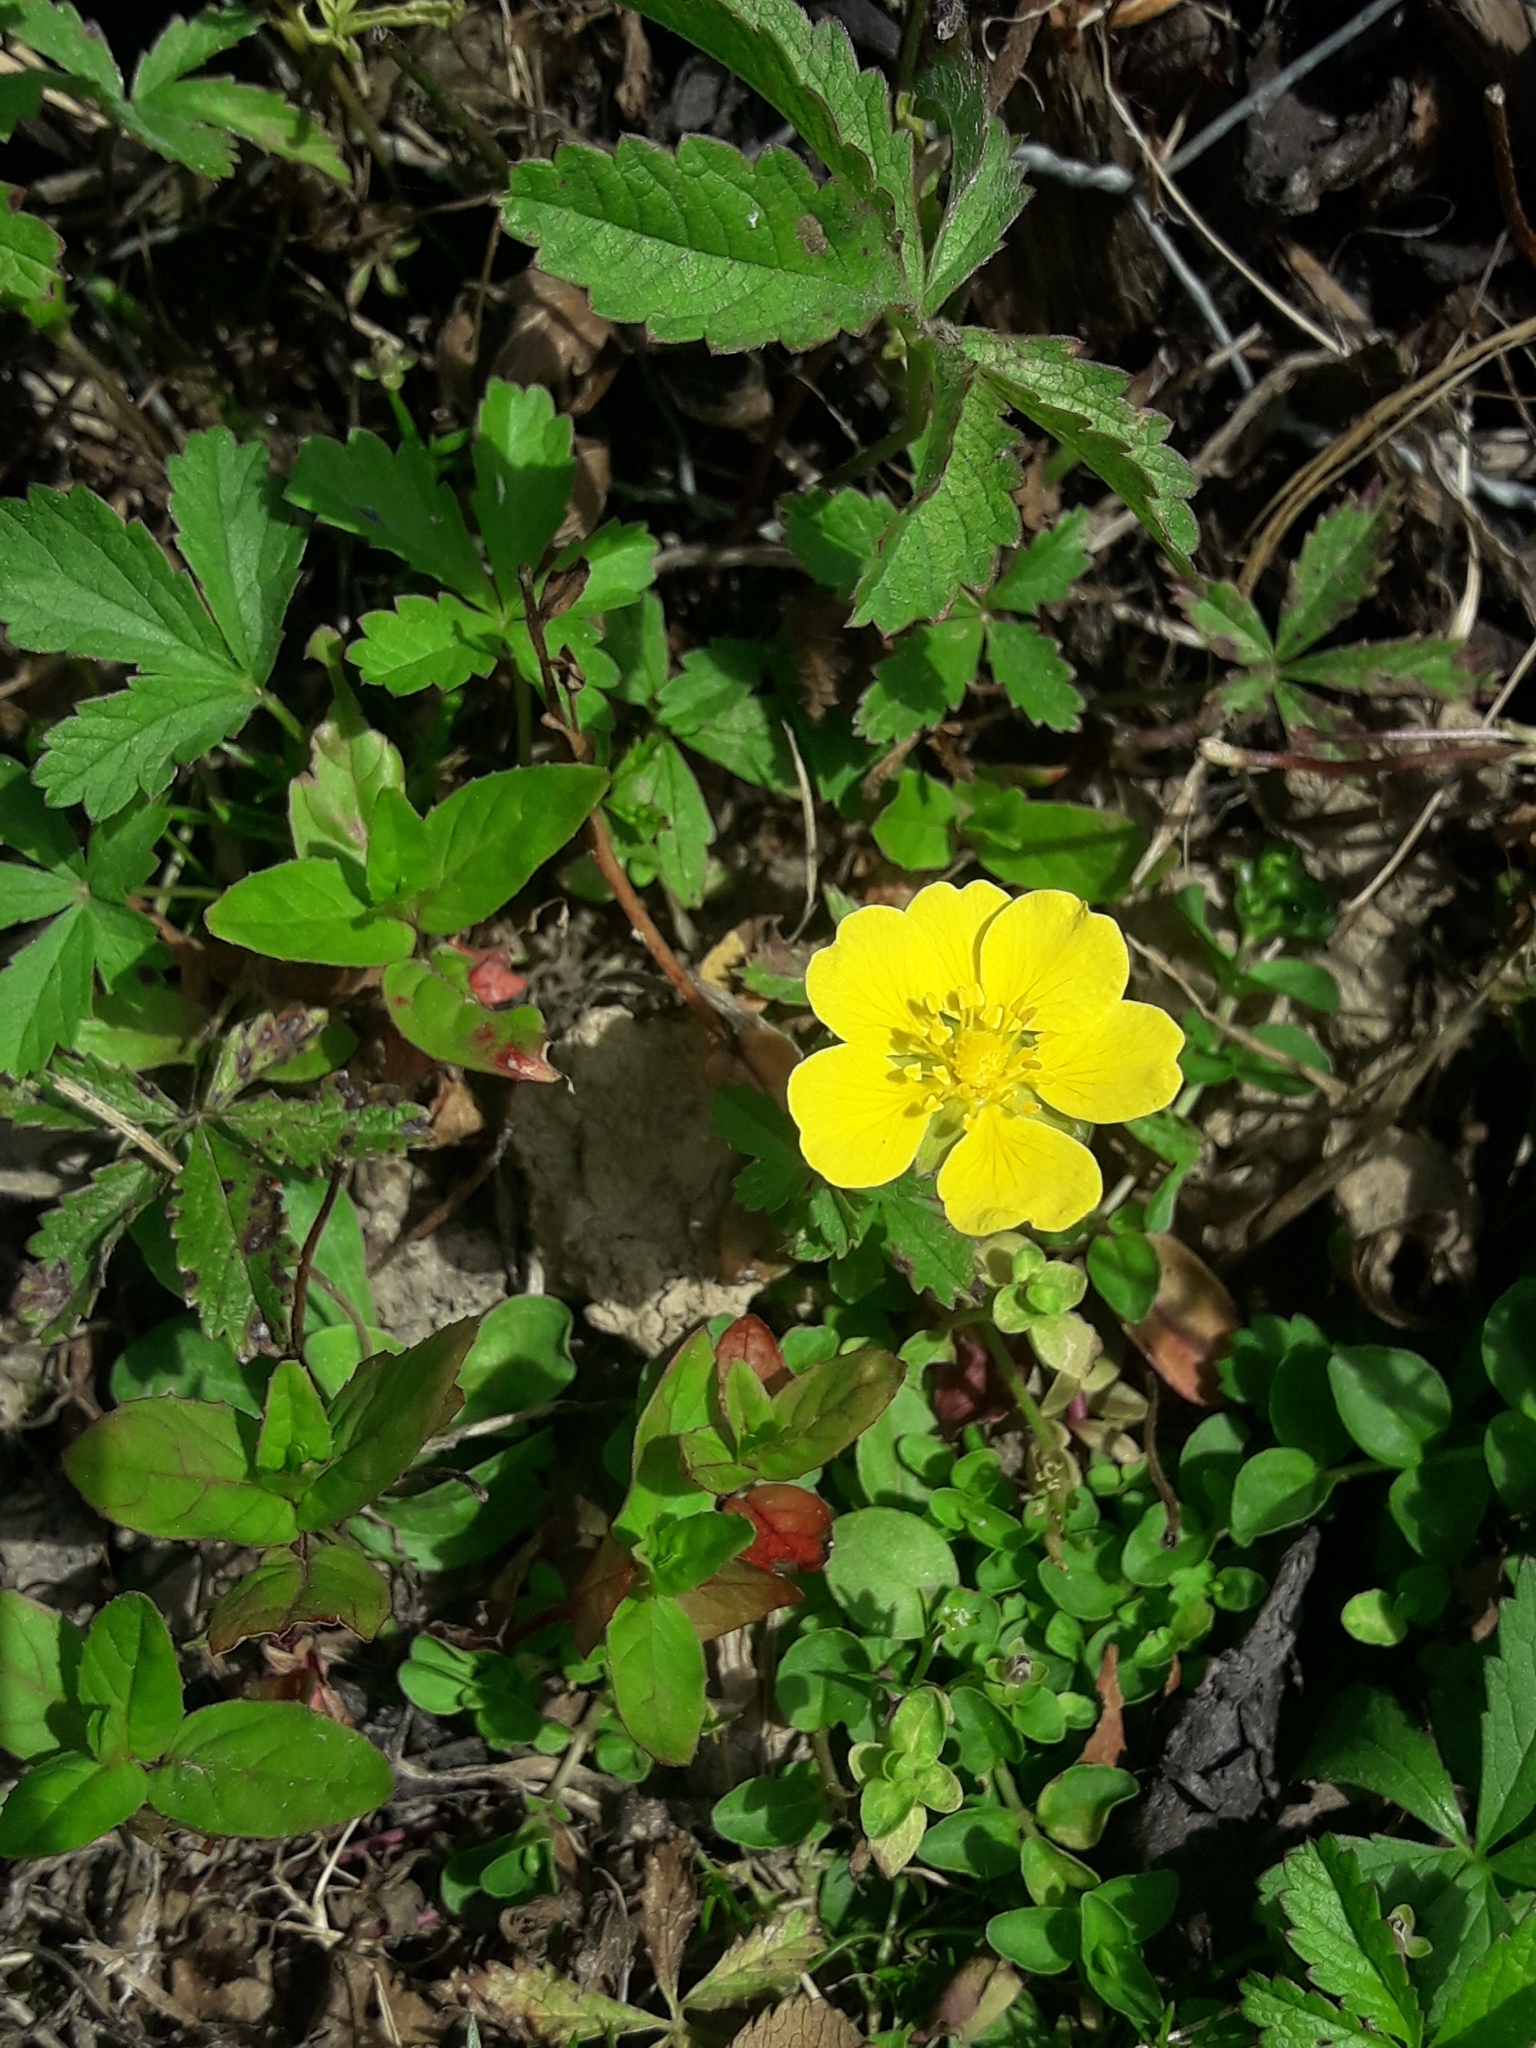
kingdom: Plantae
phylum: Tracheophyta
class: Magnoliopsida
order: Rosales
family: Rosaceae
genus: Potentilla
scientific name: Potentilla reptans
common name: Creeping cinquefoil
